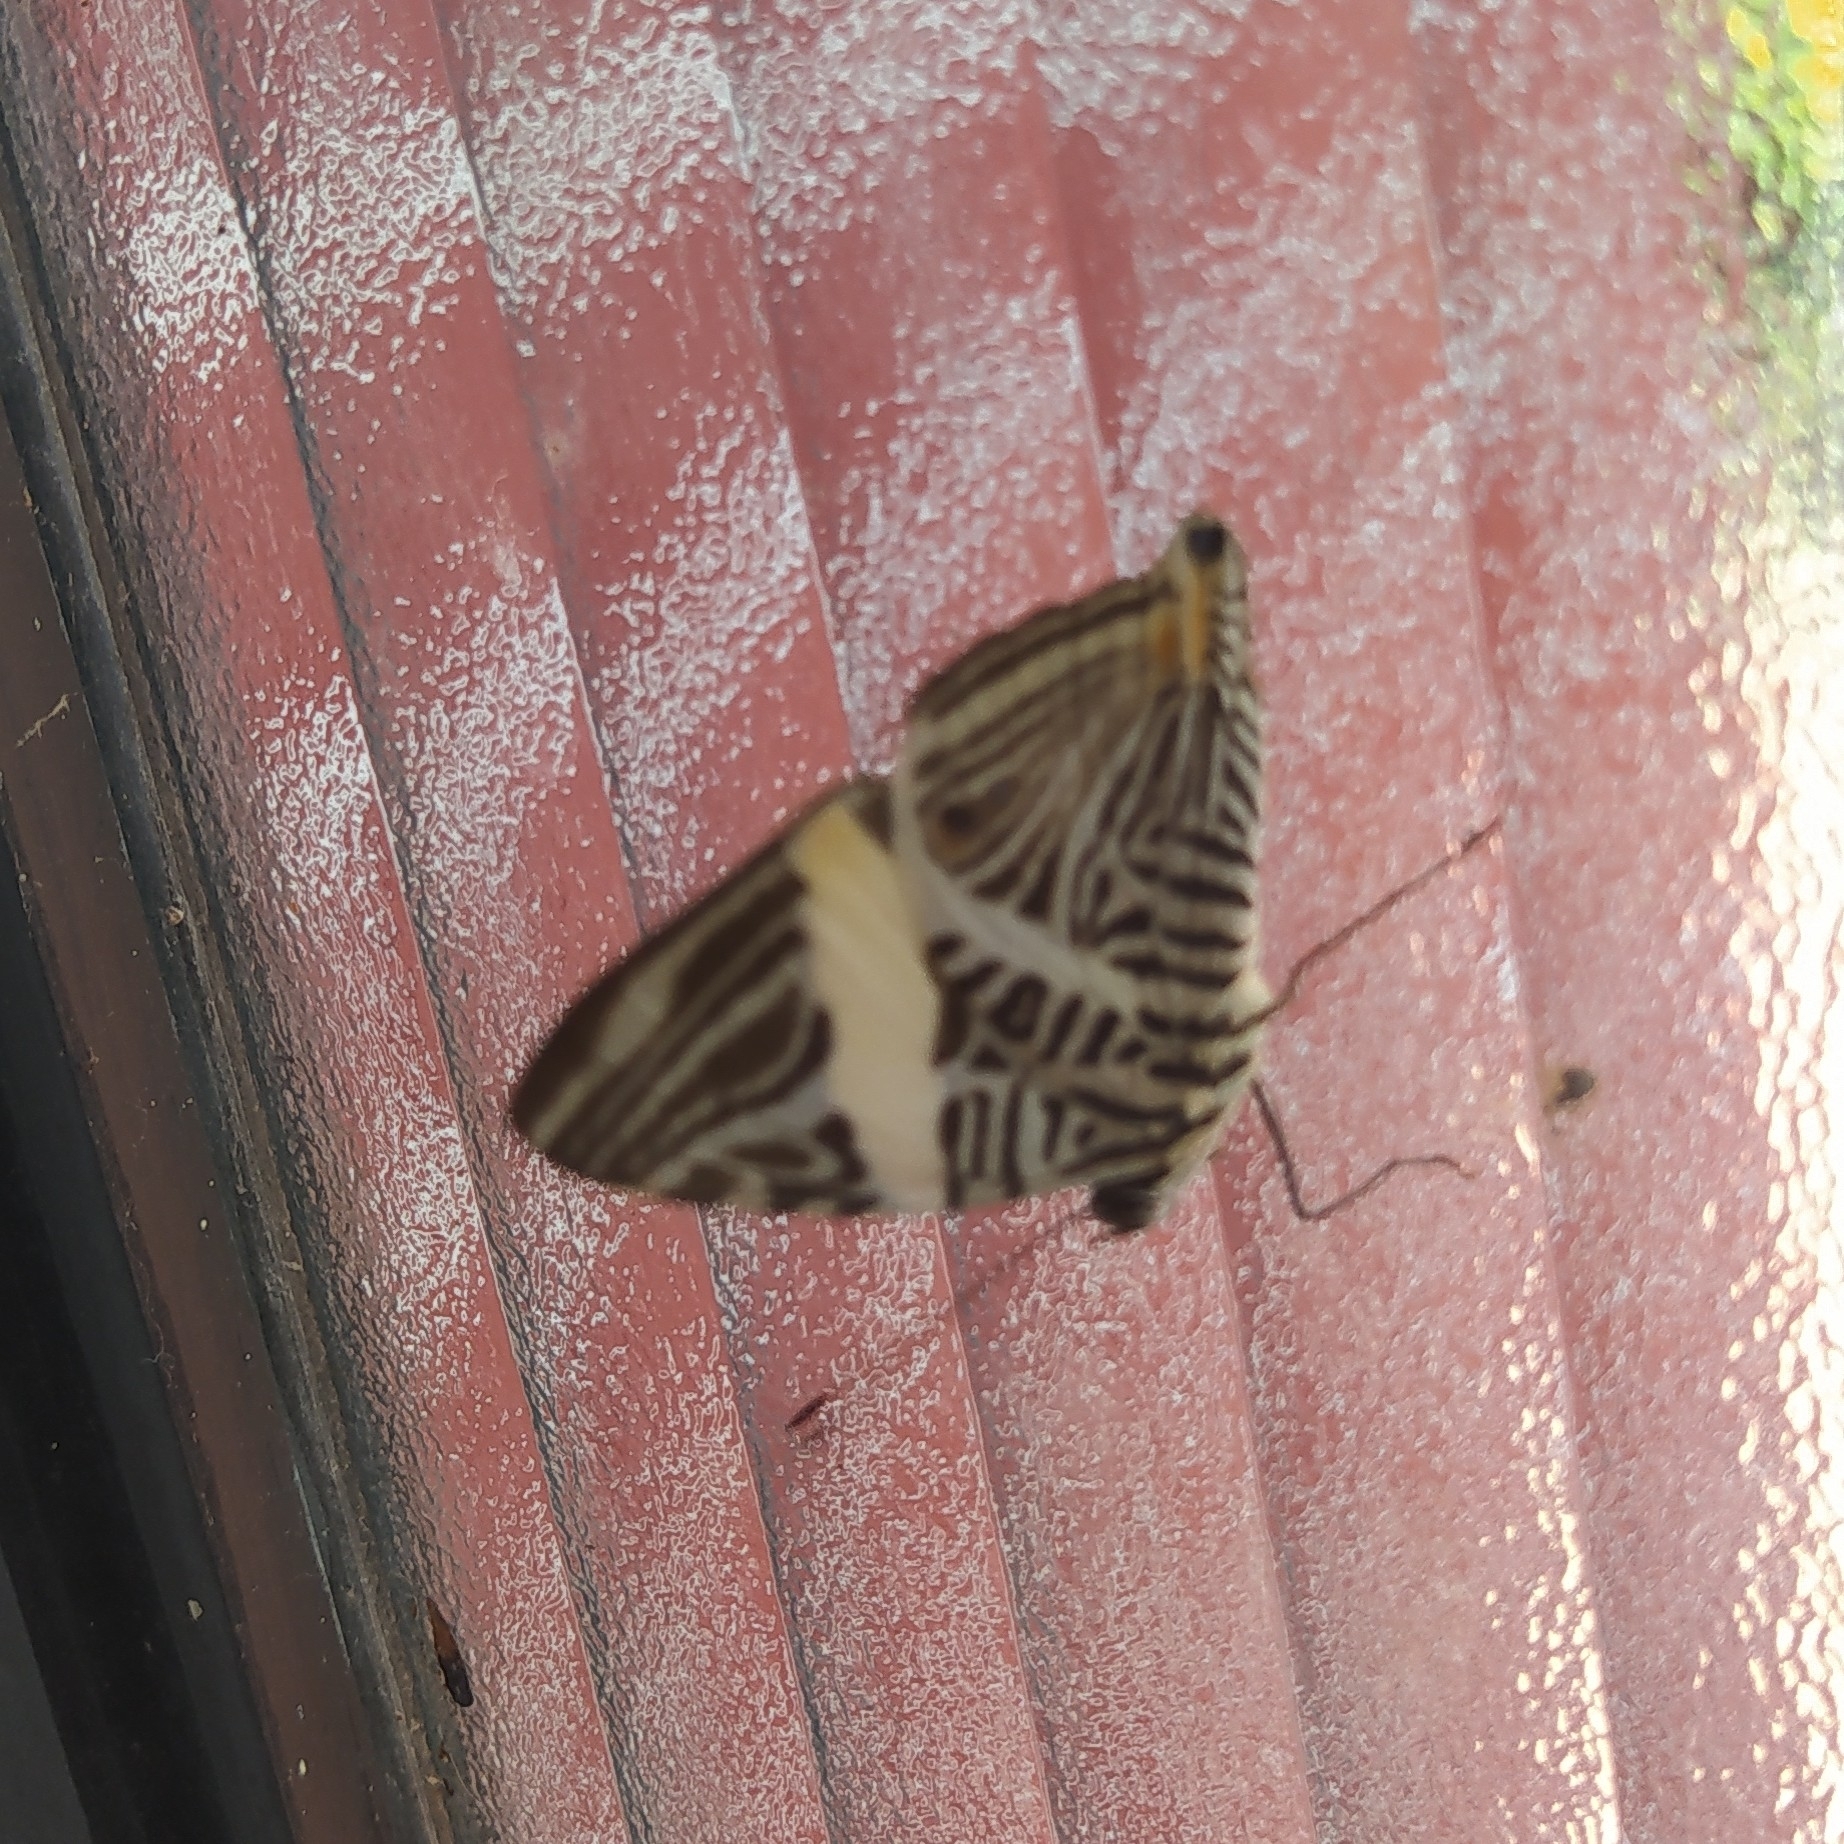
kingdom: Animalia
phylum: Arthropoda
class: Insecta
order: Lepidoptera
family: Nymphalidae
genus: Colobura
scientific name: Colobura dirce
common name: Dirce beauty
